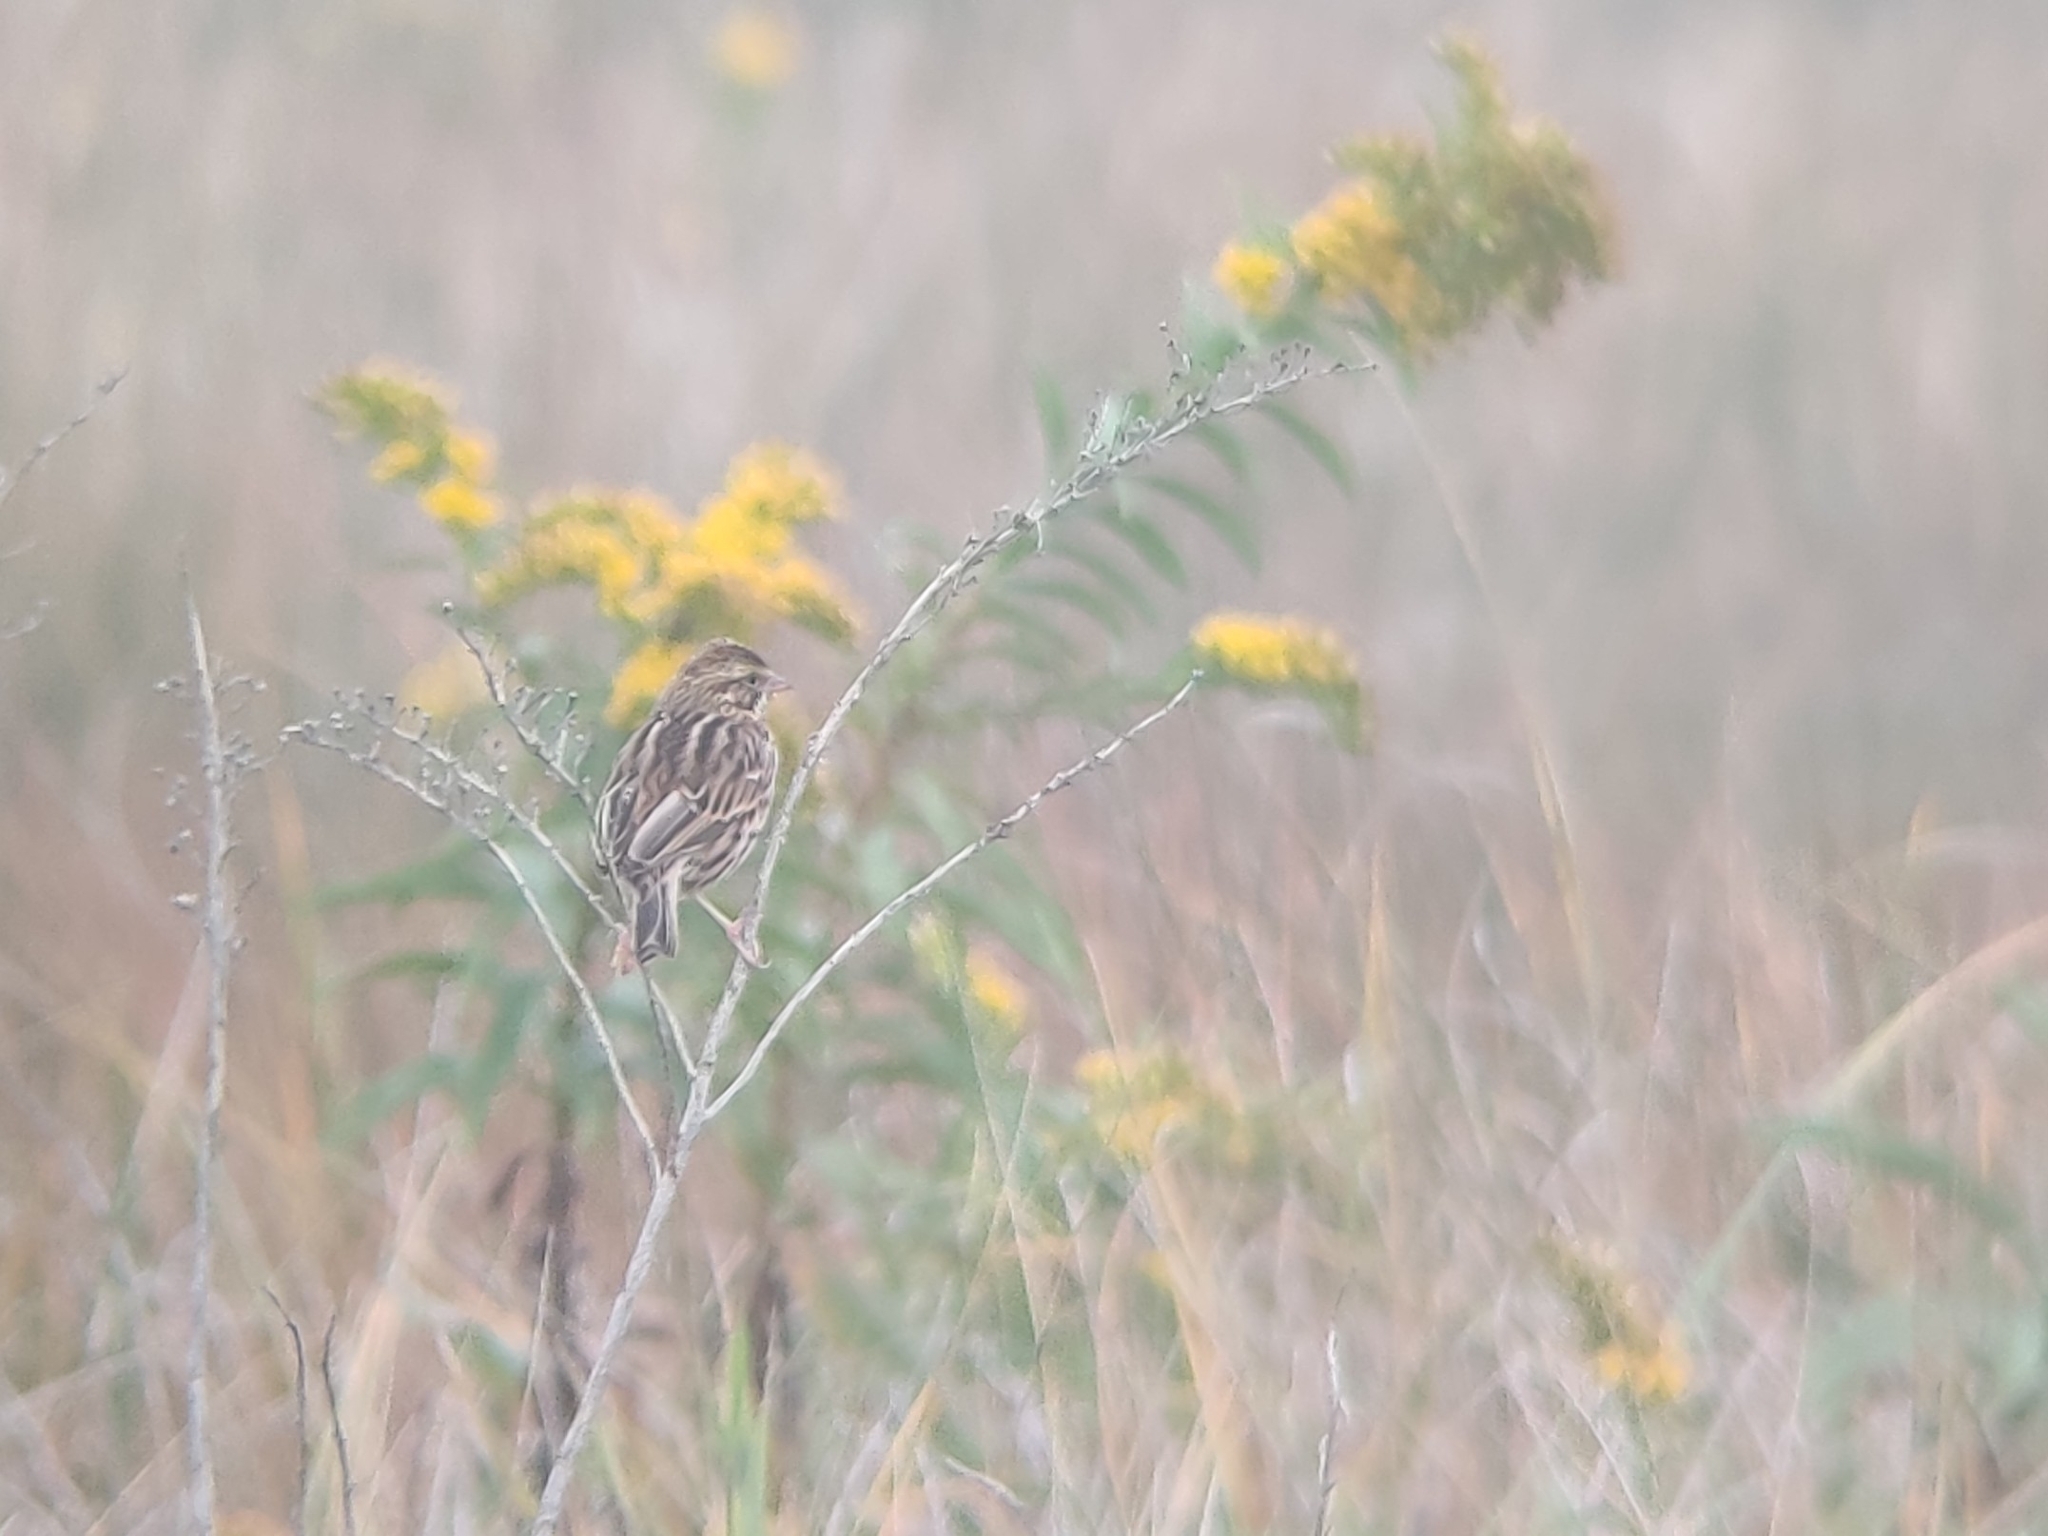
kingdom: Animalia
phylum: Chordata
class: Aves
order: Passeriformes
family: Passerellidae
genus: Passerculus
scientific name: Passerculus sandwichensis
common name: Savannah sparrow
